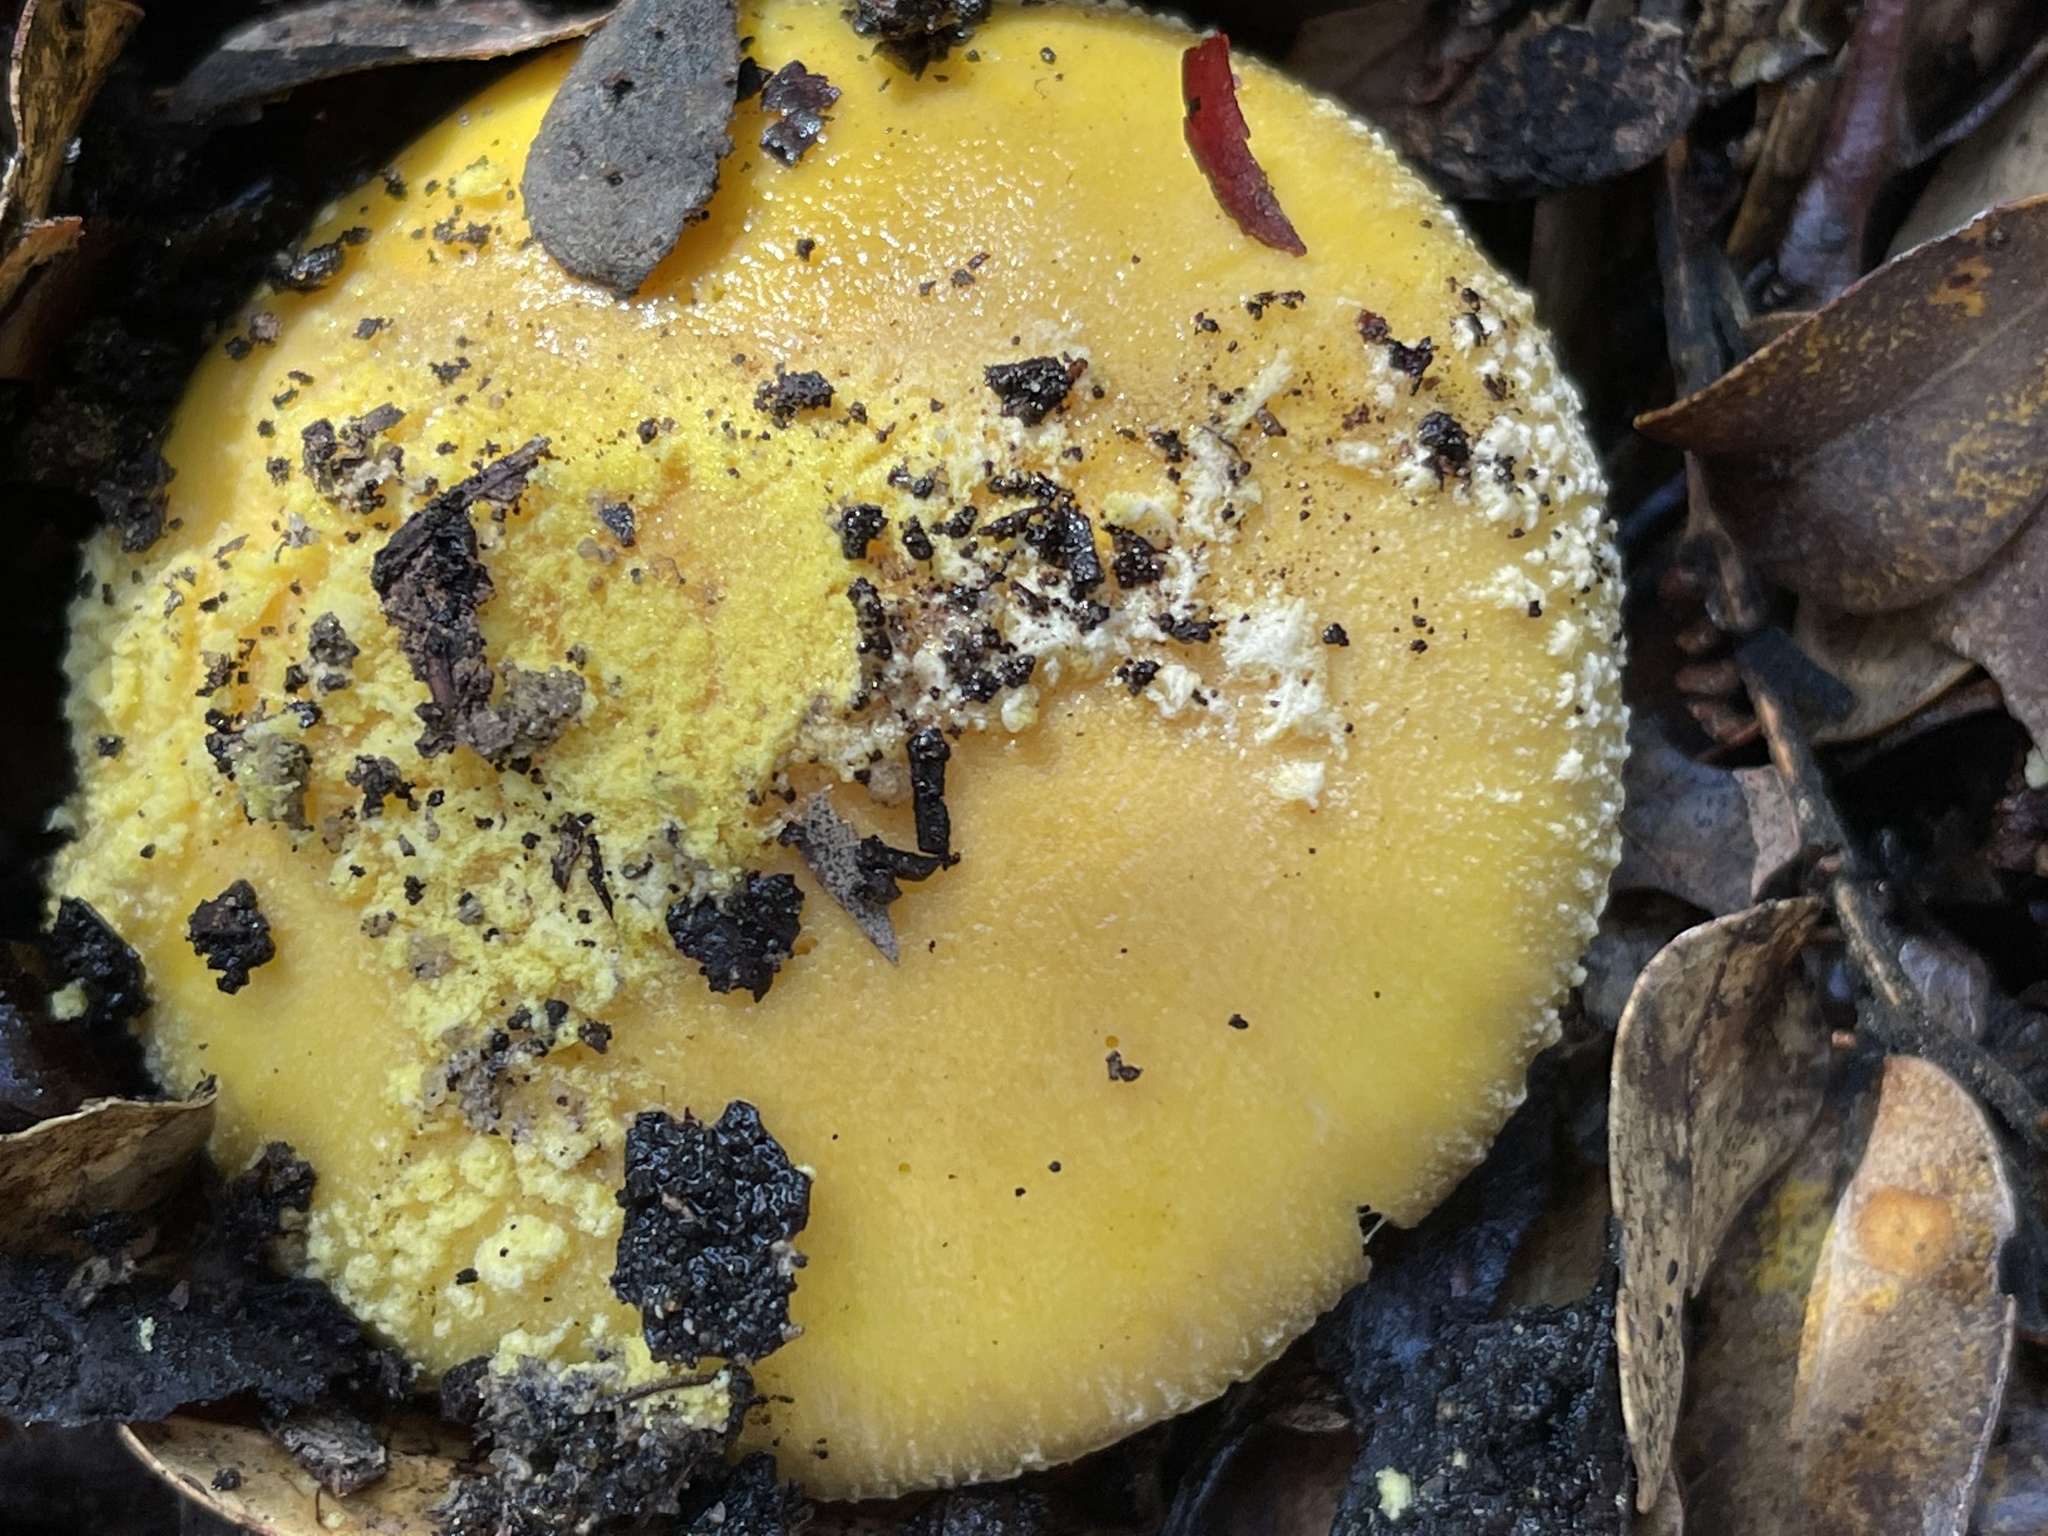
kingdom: Fungi
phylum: Basidiomycota
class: Agaricomycetes
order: Agaricales
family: Amanitaceae
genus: Amanita
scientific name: Amanita augusta
